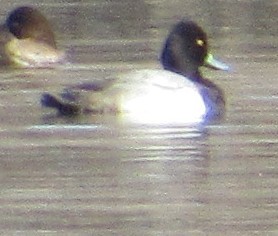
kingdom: Animalia
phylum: Chordata
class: Aves
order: Anseriformes
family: Anatidae
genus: Aythya
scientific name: Aythya affinis
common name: Lesser scaup
